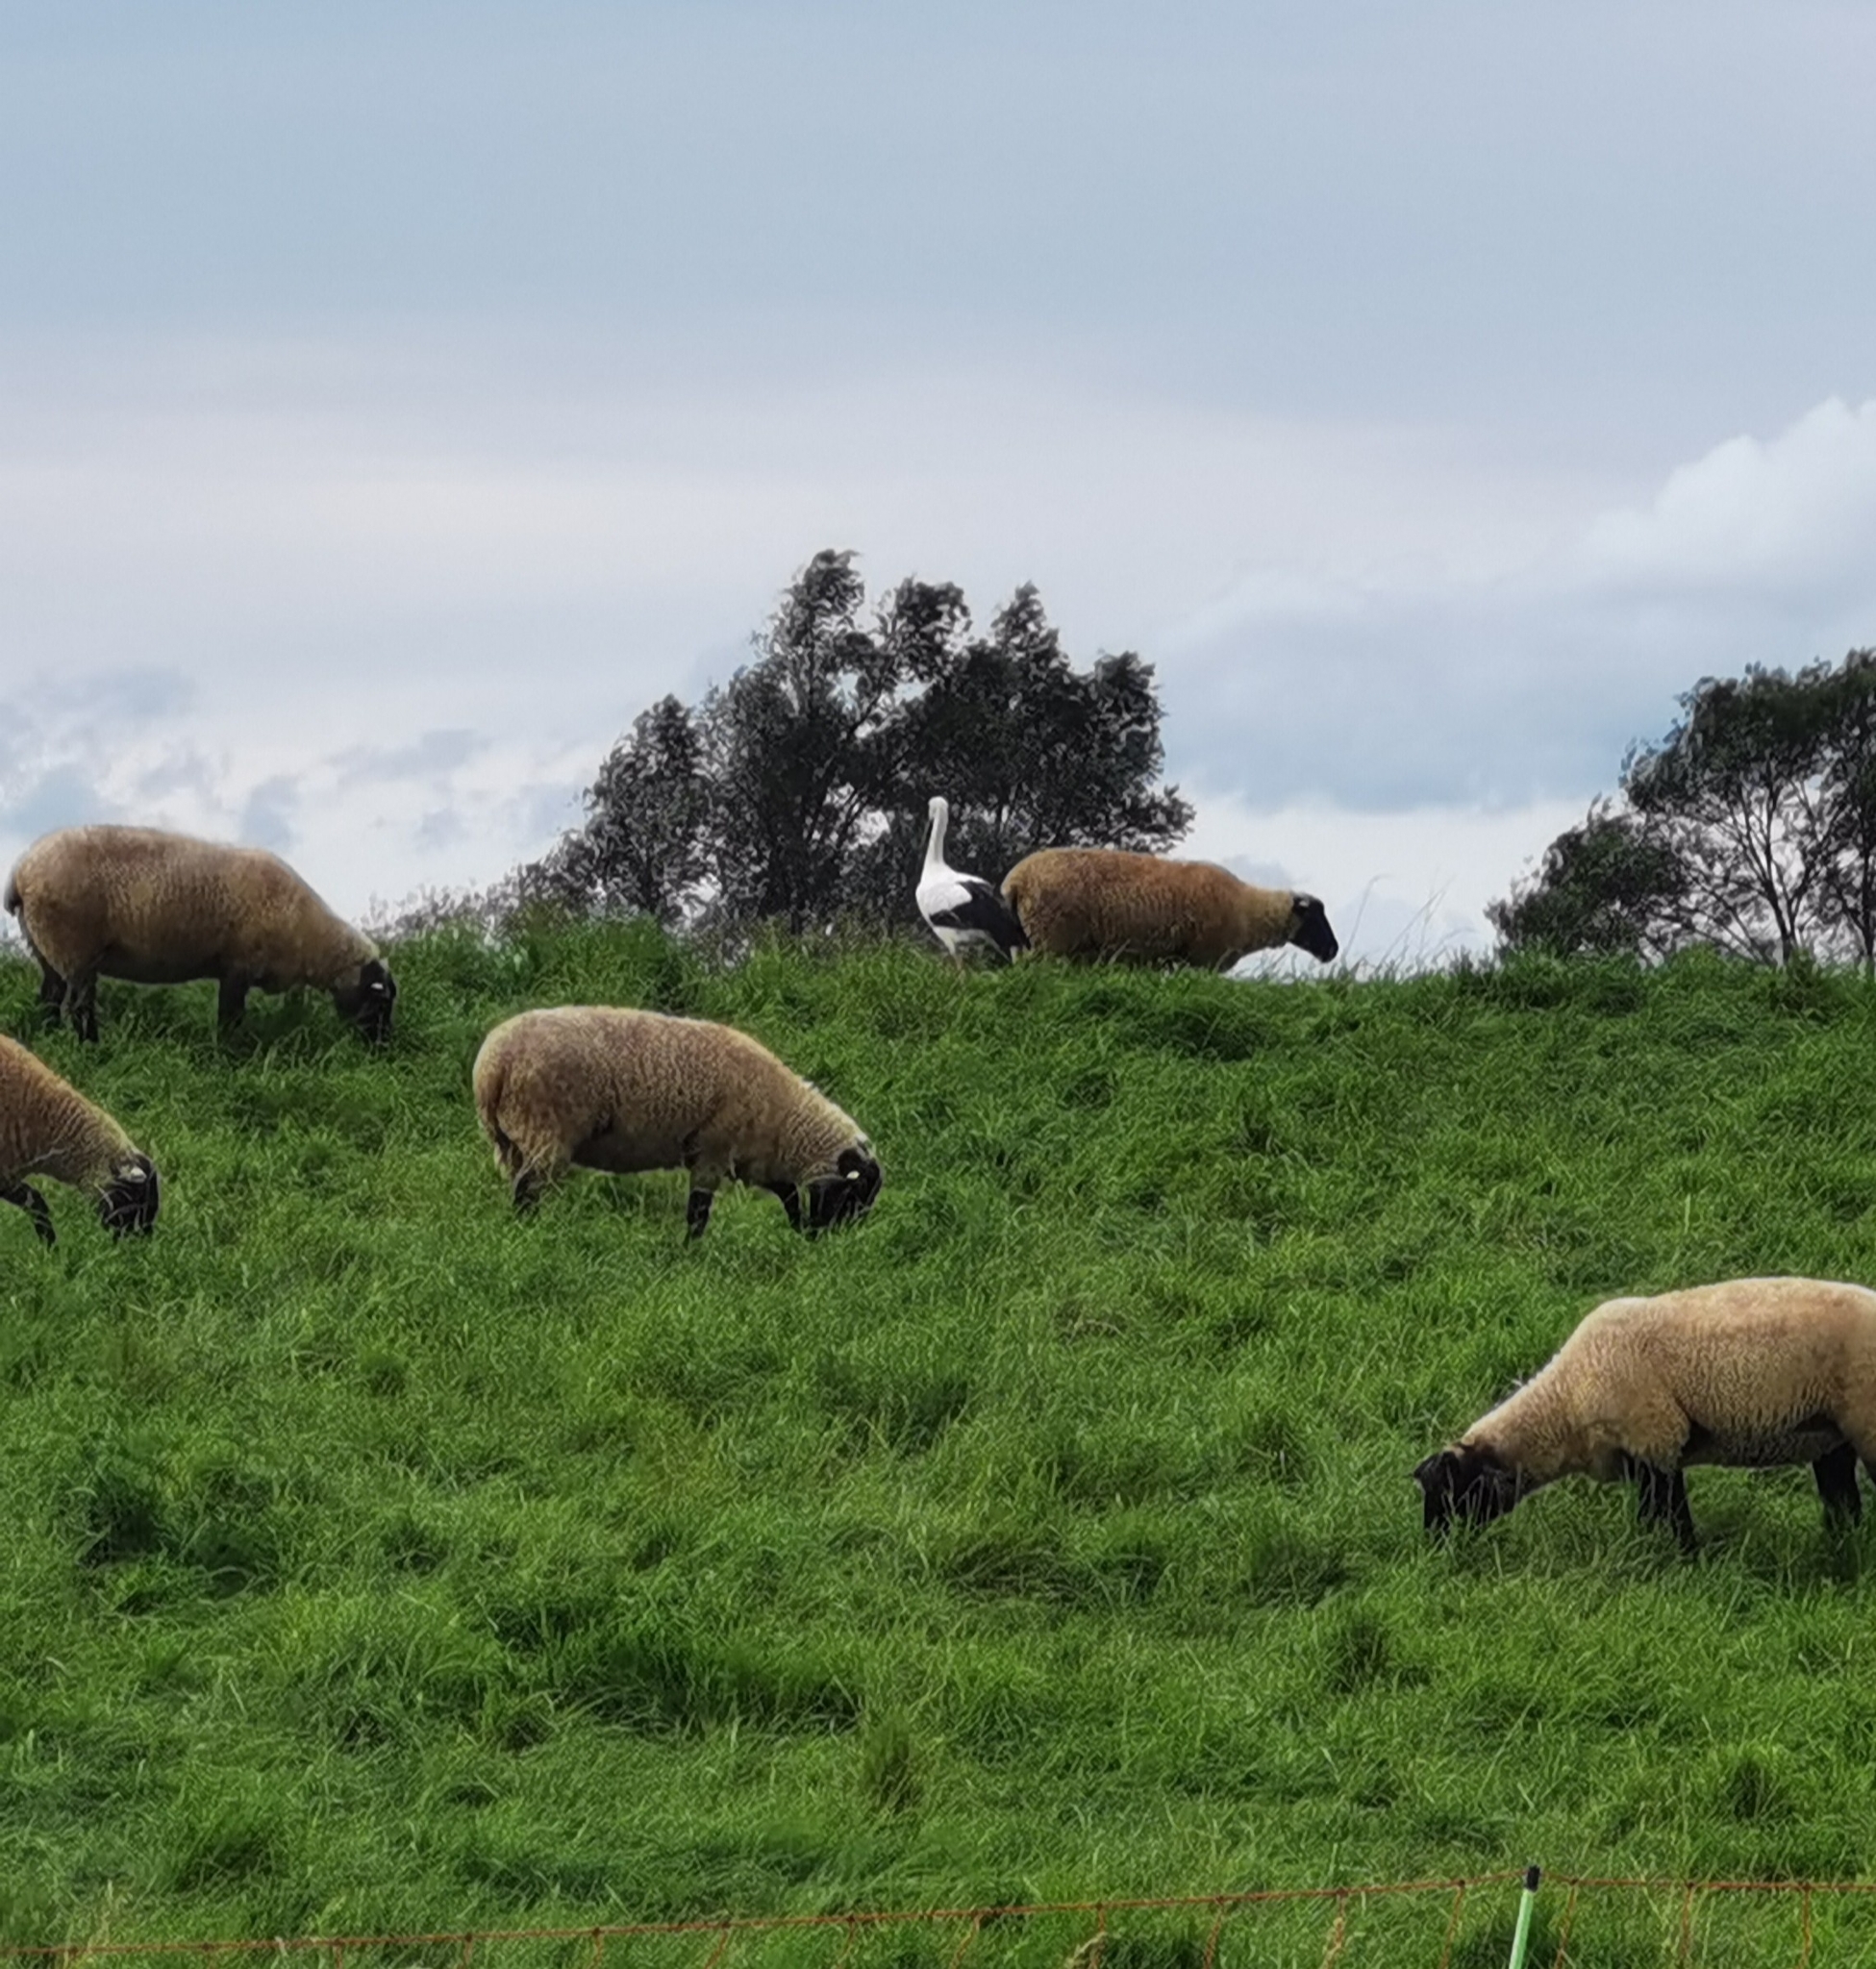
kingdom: Animalia
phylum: Chordata
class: Aves
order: Ciconiiformes
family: Ciconiidae
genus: Ciconia
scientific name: Ciconia ciconia
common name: White stork
